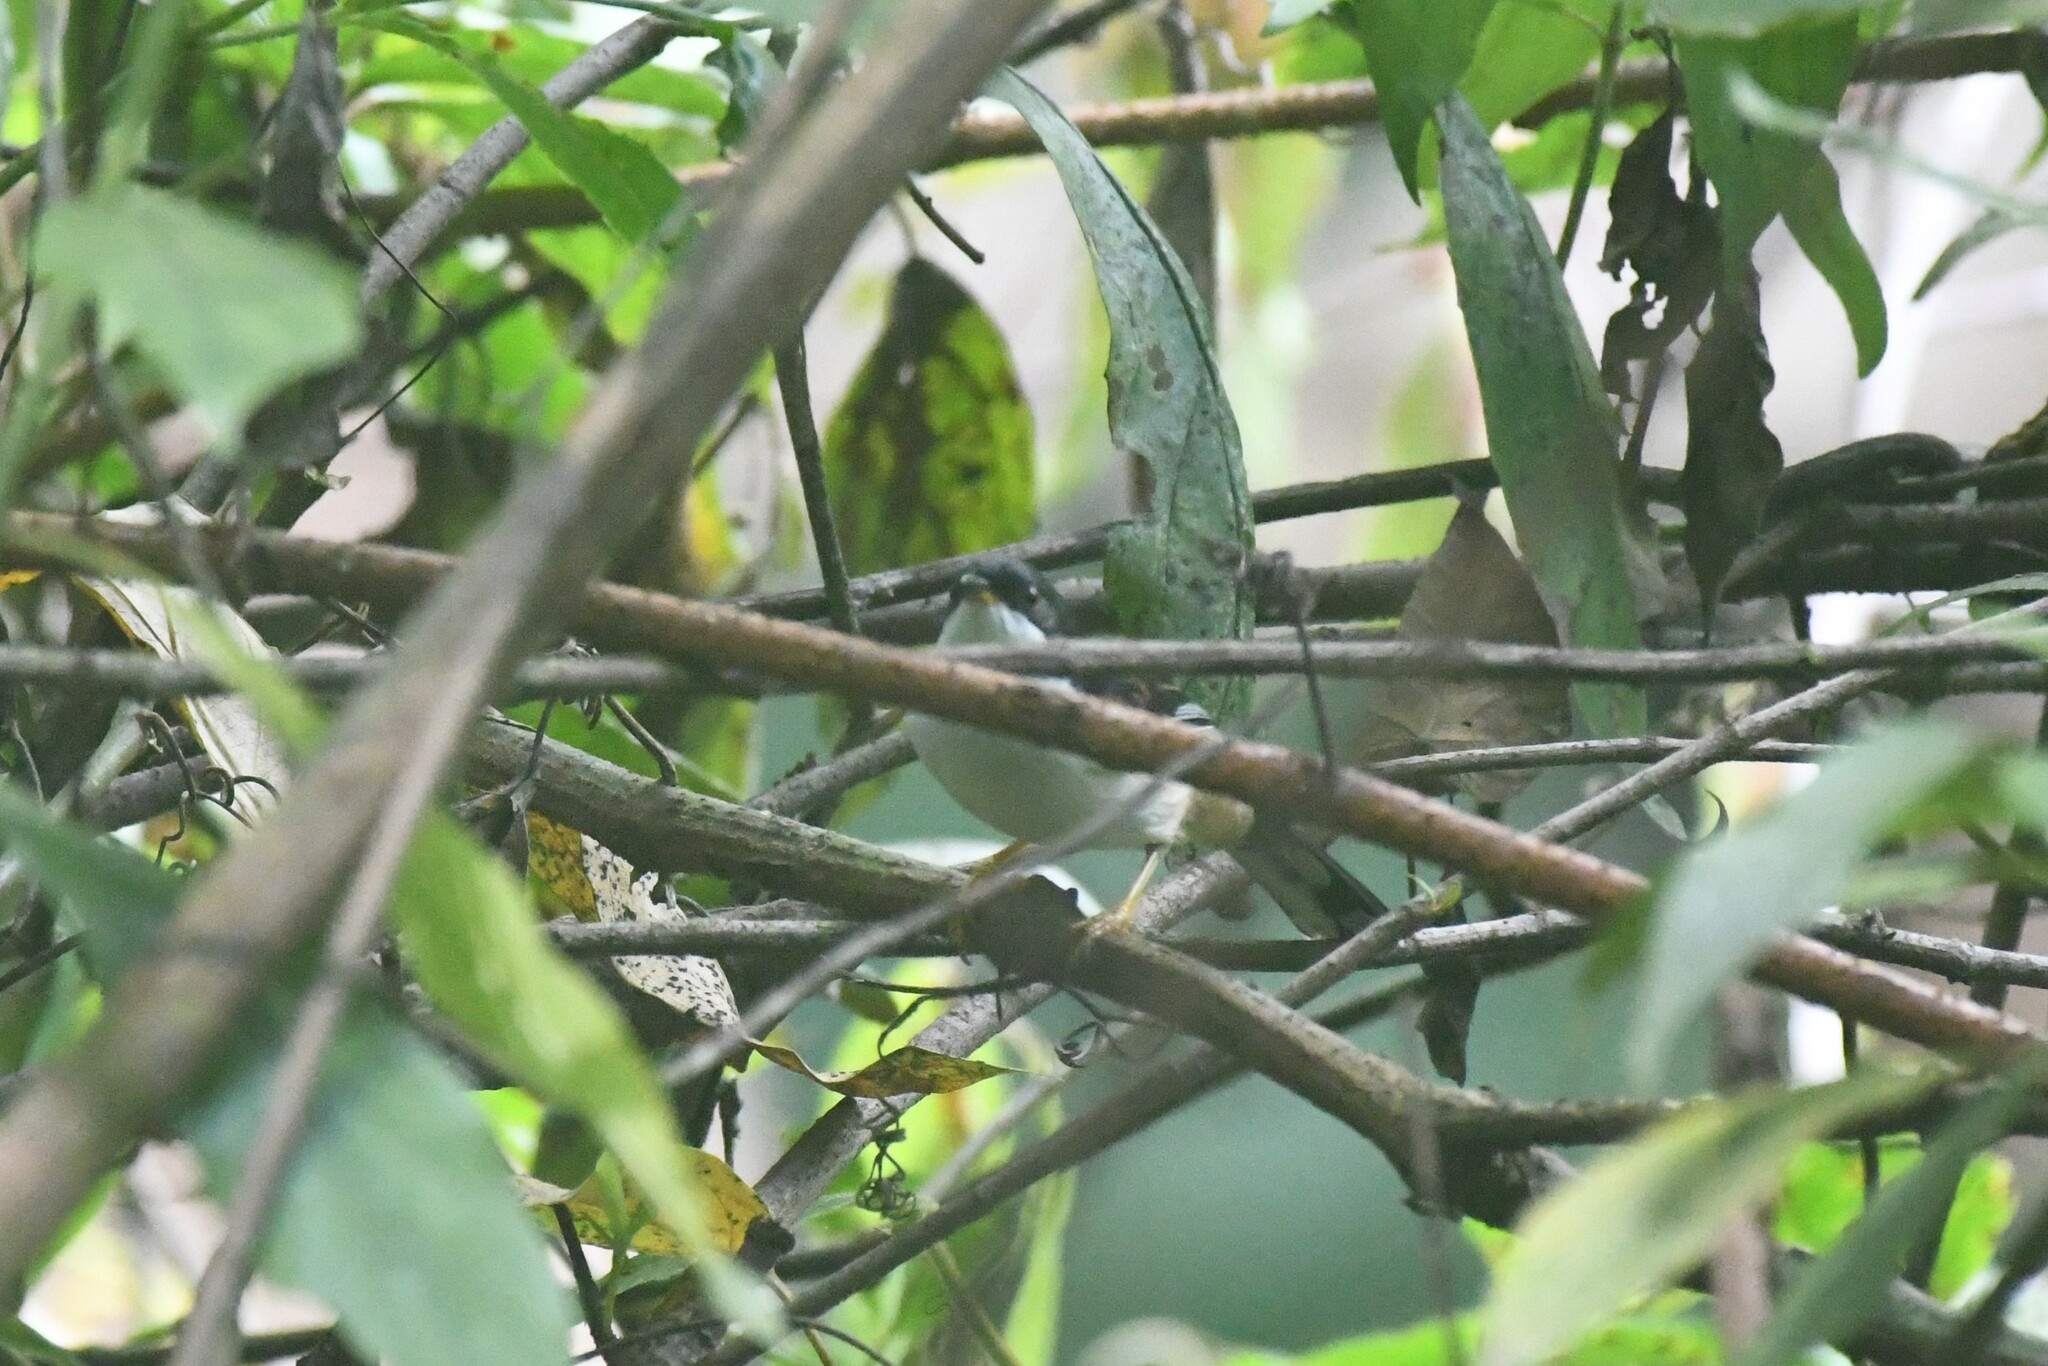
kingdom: Animalia
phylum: Chordata
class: Aves
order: Passeriformes
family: Leiothrichidae
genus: Heterophasia
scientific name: Heterophasia annectans
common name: Rufous-backed sibia
